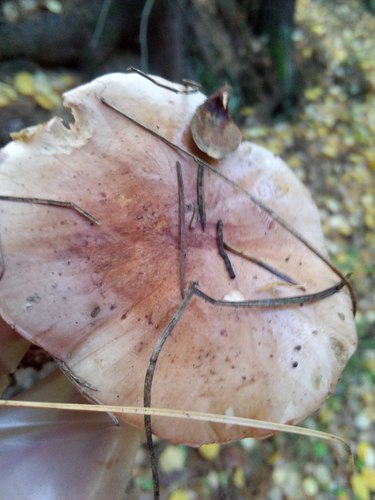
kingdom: Fungi
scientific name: Fungi
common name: Fungi
